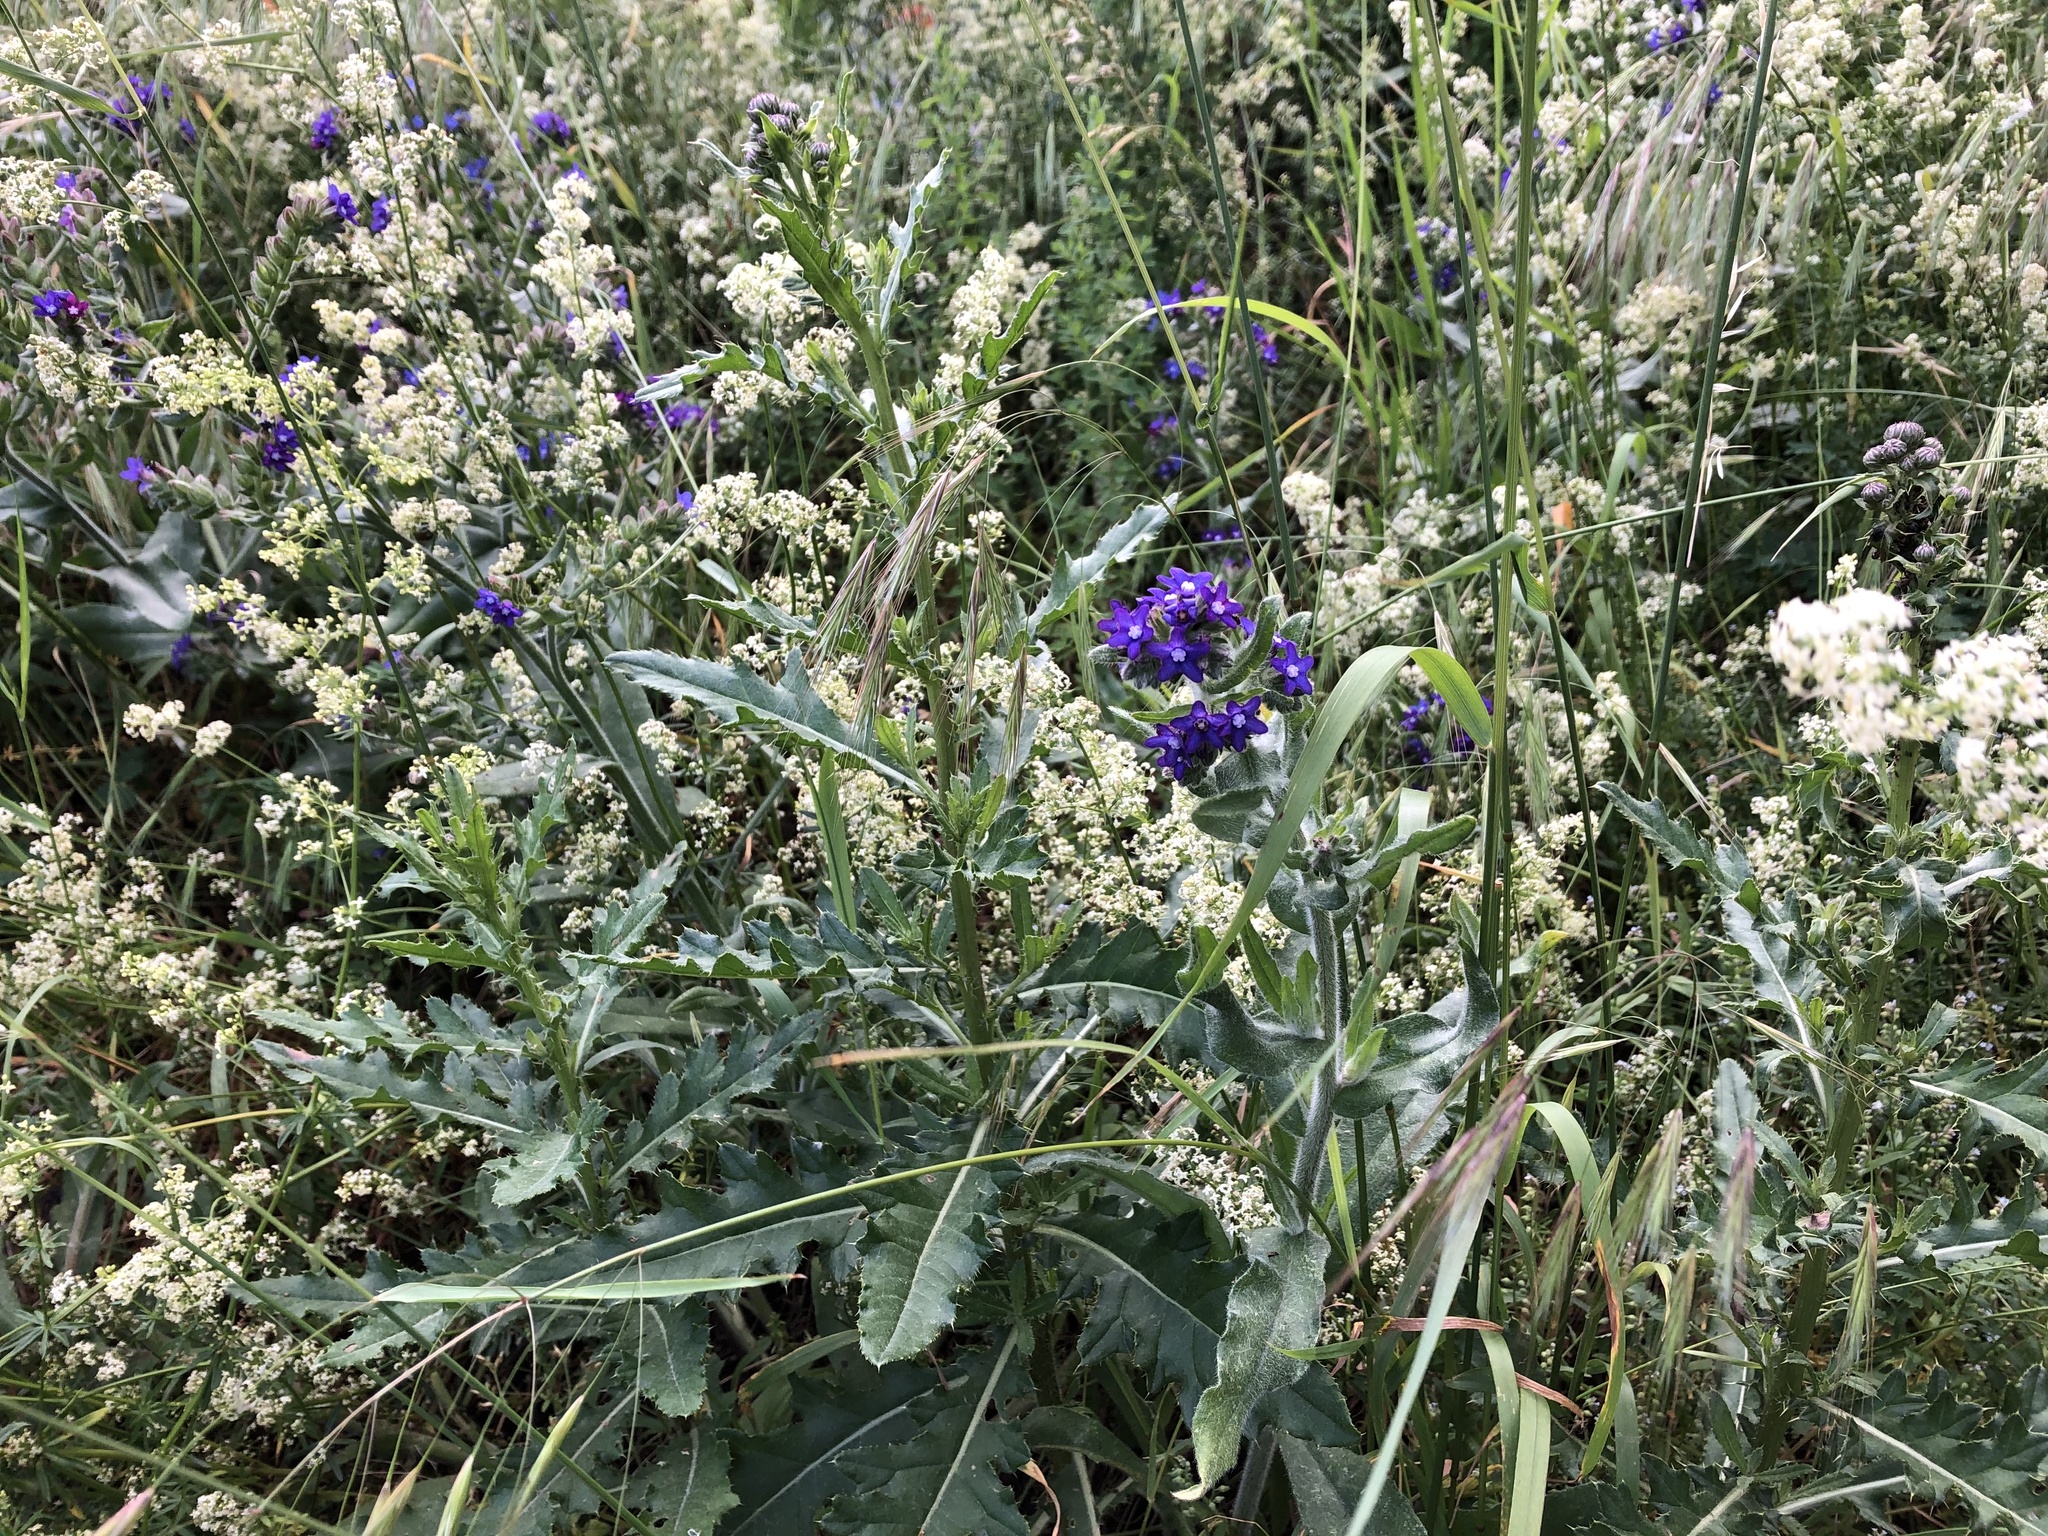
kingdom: Plantae
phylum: Tracheophyta
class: Magnoliopsida
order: Boraginales
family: Boraginaceae
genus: Anchusa
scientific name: Anchusa officinalis
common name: Alkanet
